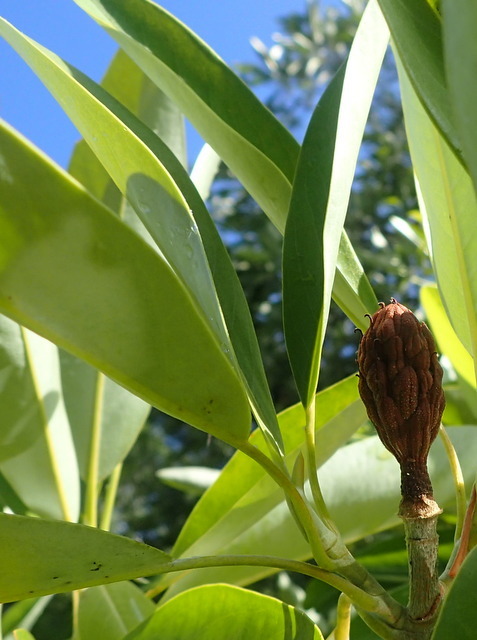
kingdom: Plantae
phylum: Tracheophyta
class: Magnoliopsida
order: Magnoliales
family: Magnoliaceae
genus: Magnolia
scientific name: Magnolia virginiana
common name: Swamp bay
